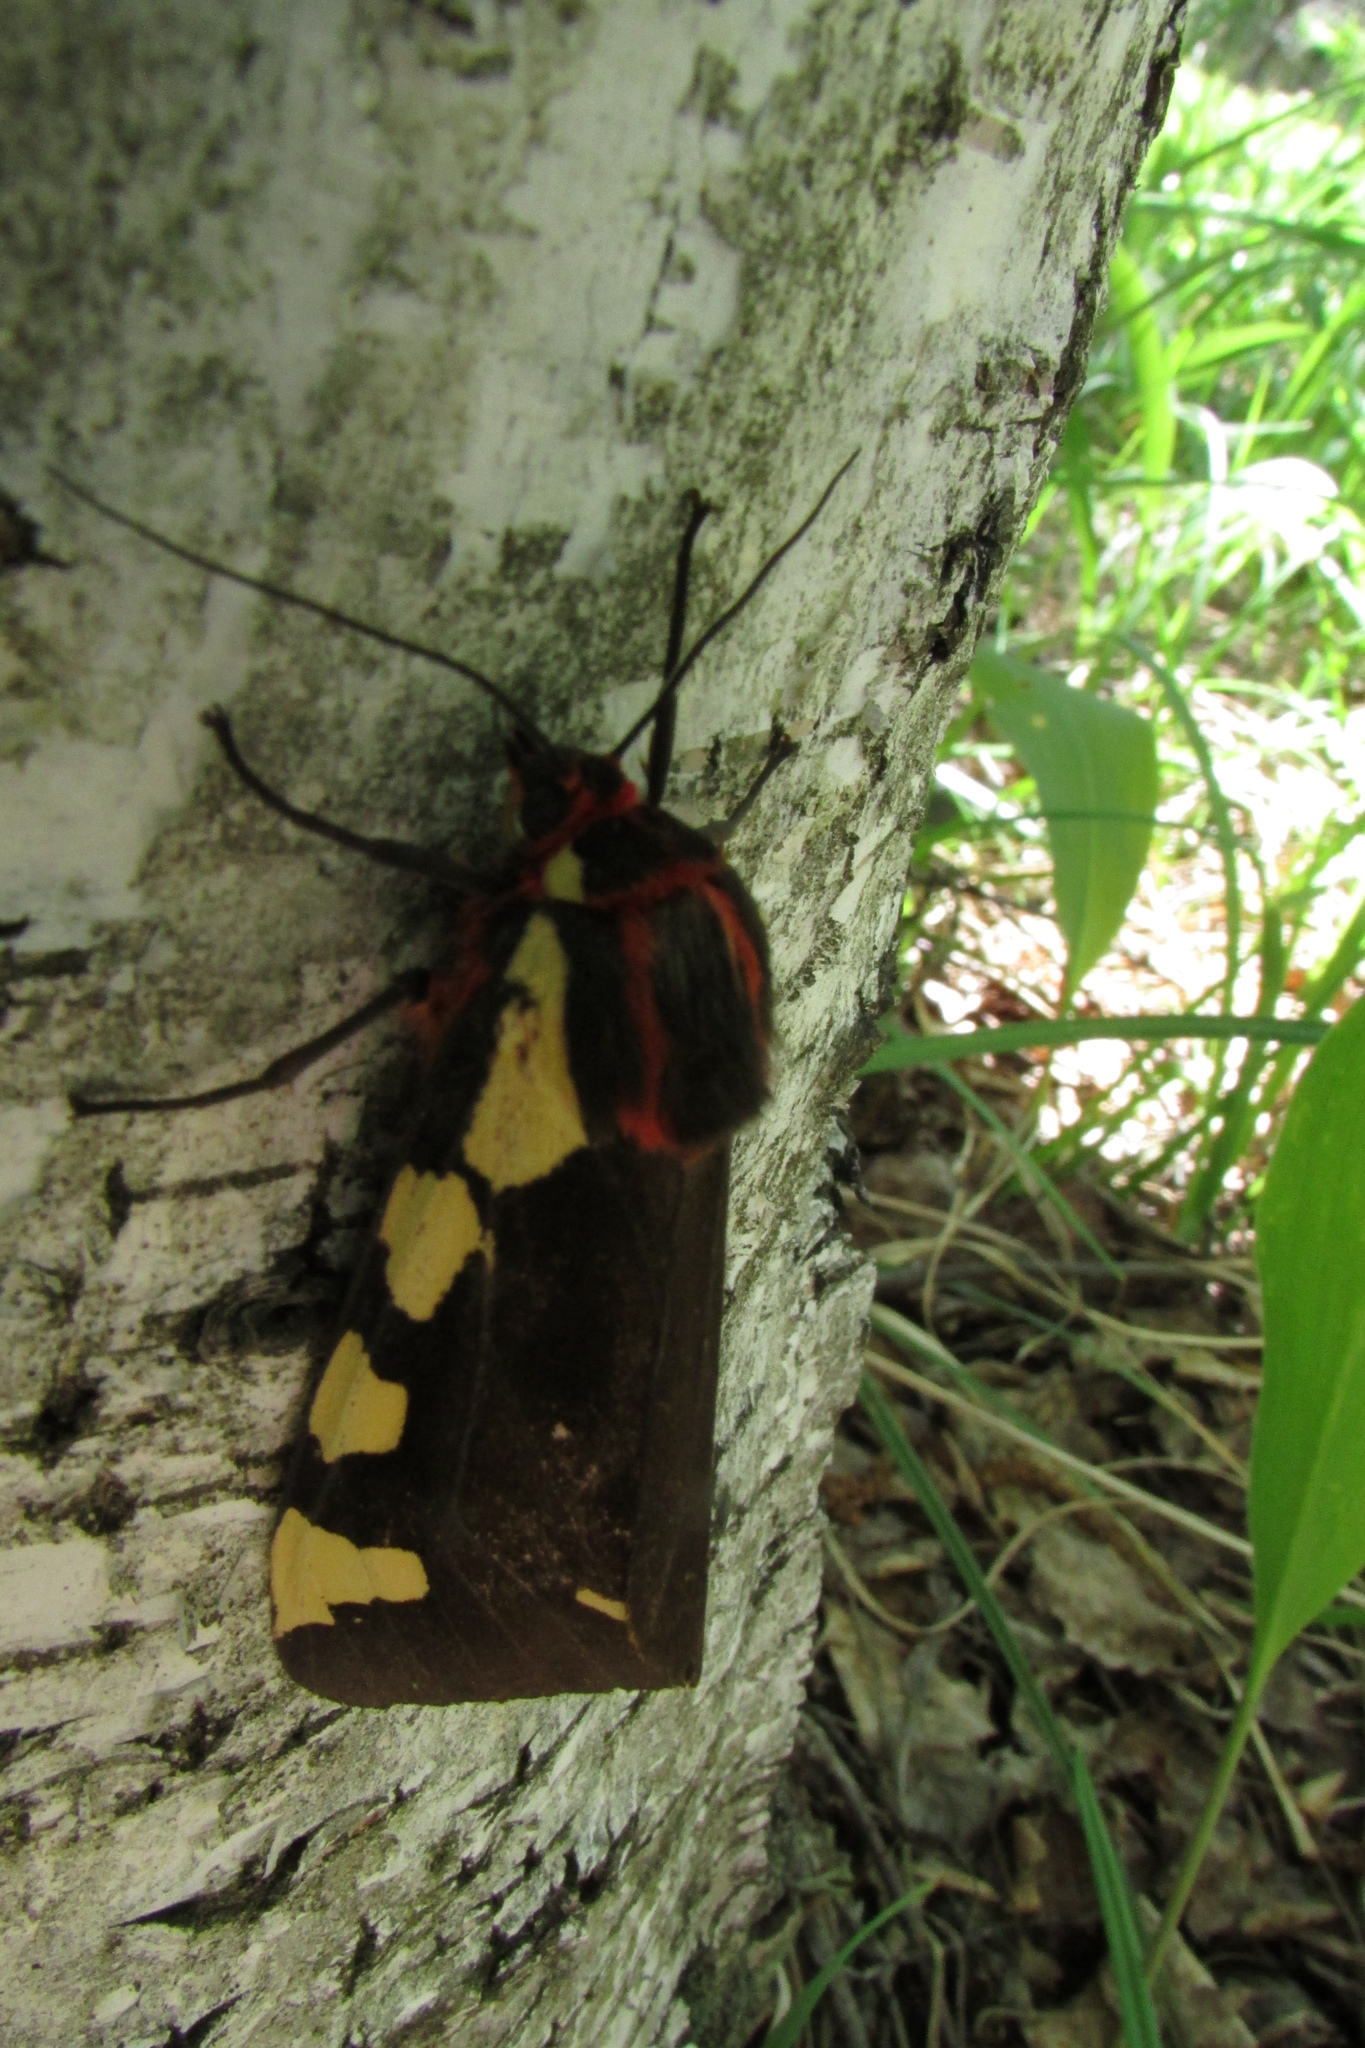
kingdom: Animalia
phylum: Arthropoda
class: Insecta
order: Lepidoptera
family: Erebidae
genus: Pericallia
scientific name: Pericallia matronula
